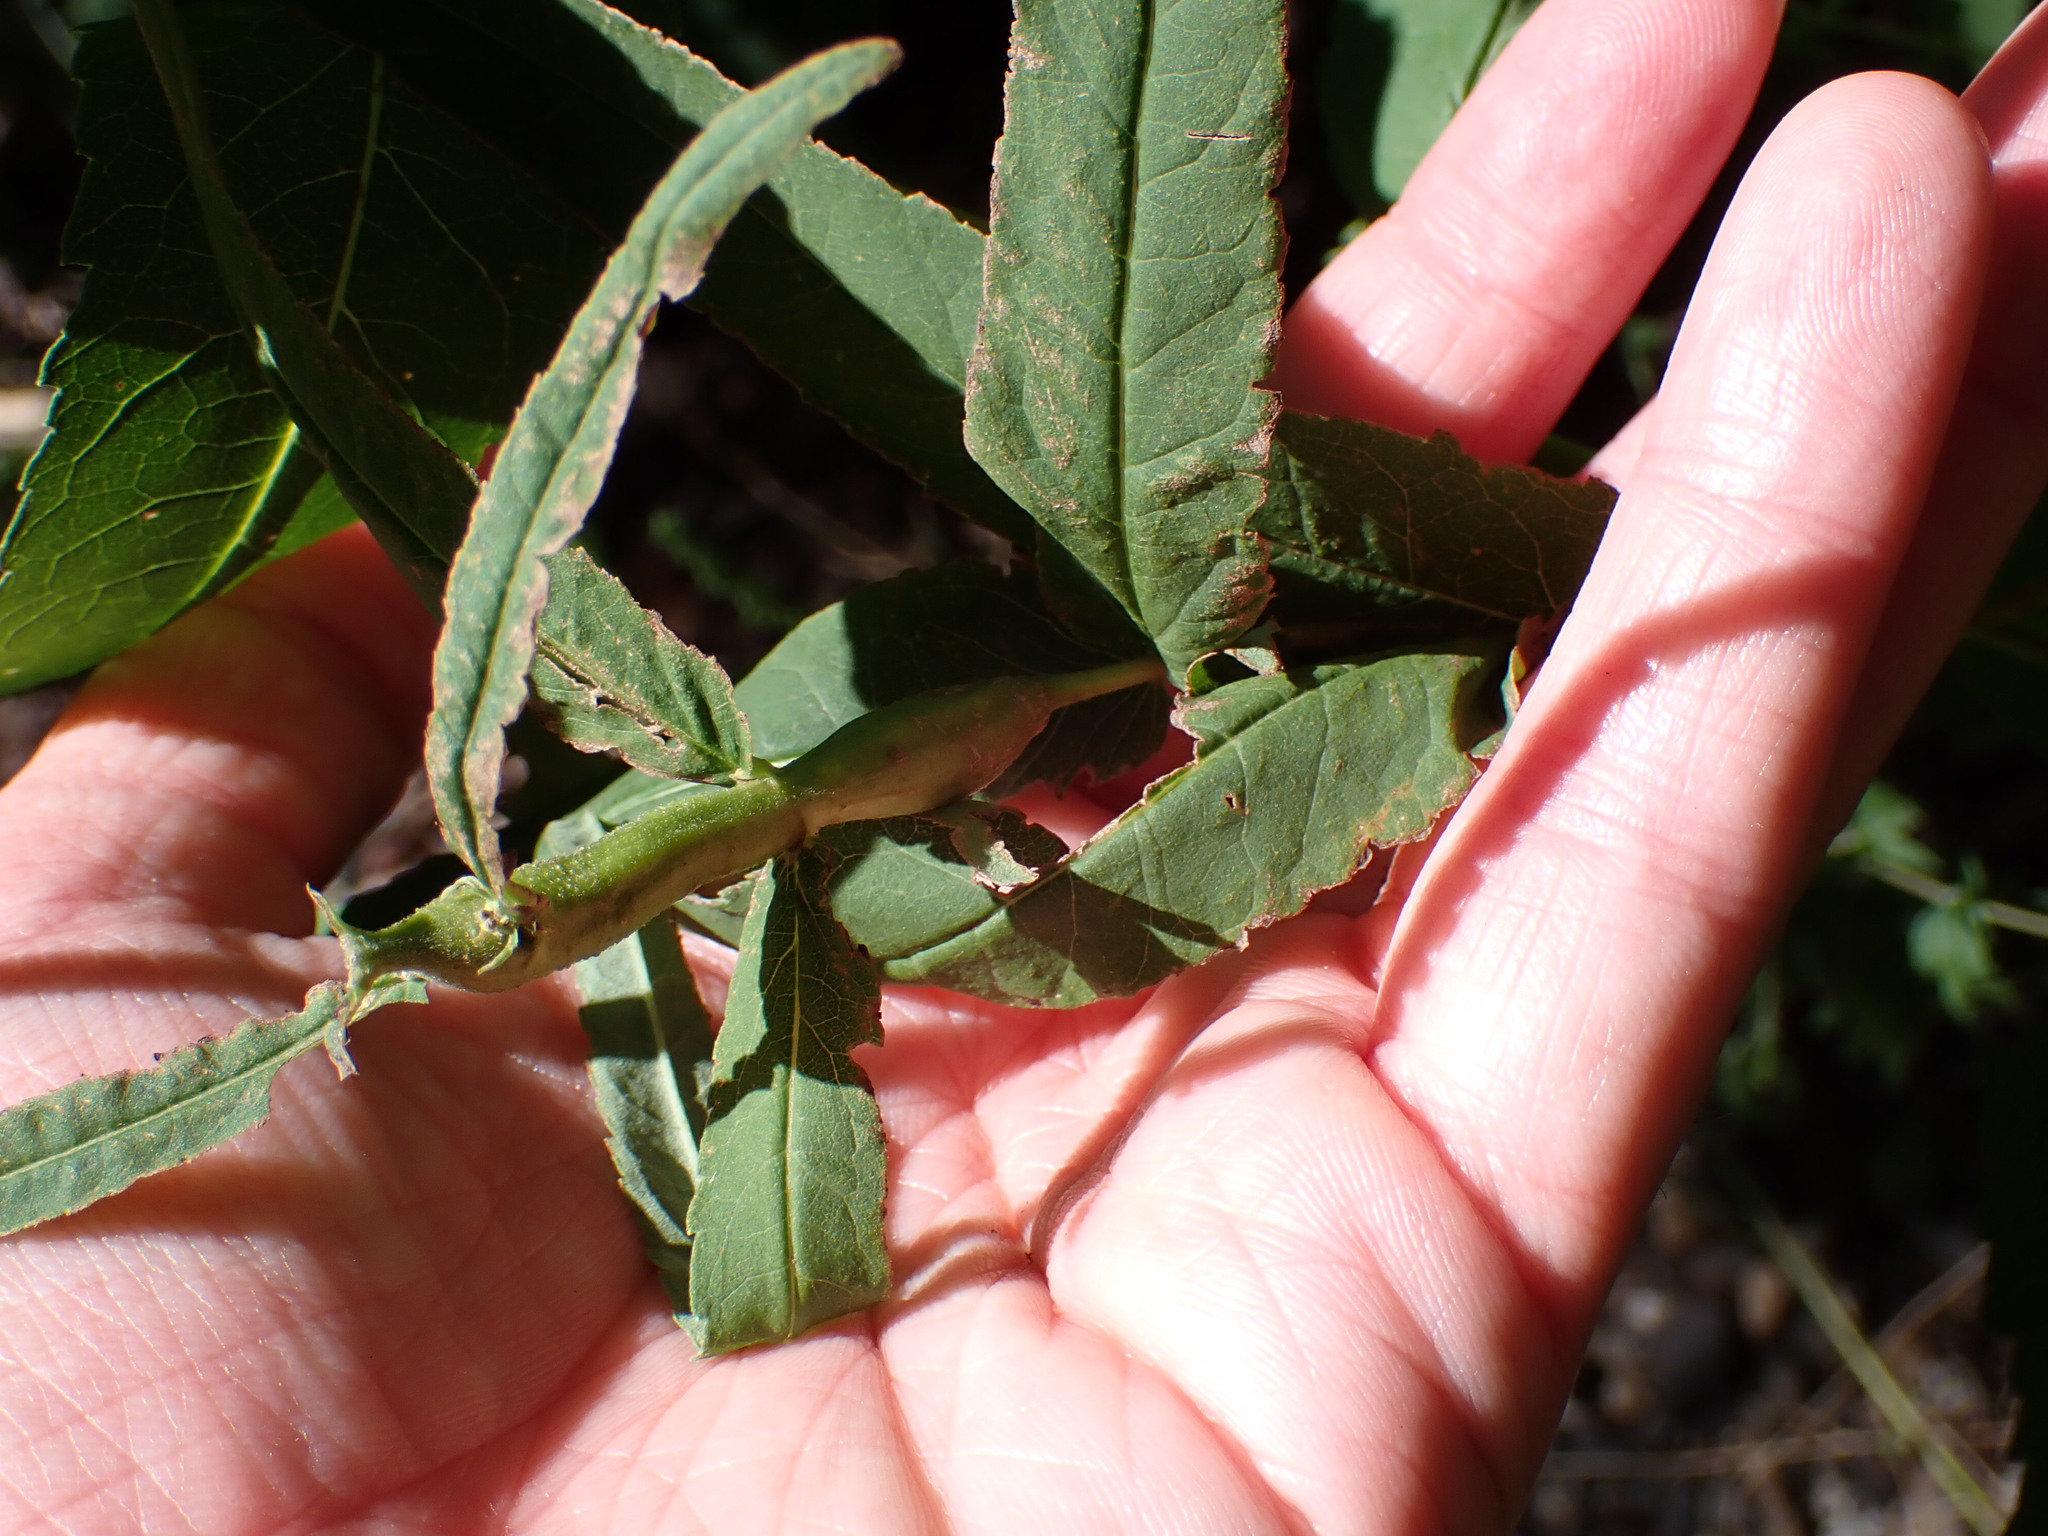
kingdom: Animalia
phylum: Arthropoda
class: Insecta
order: Diptera
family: Cecidomyiidae
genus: Neolasioptera
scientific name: Neolasioptera perfoliata
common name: Boneset stem midge
